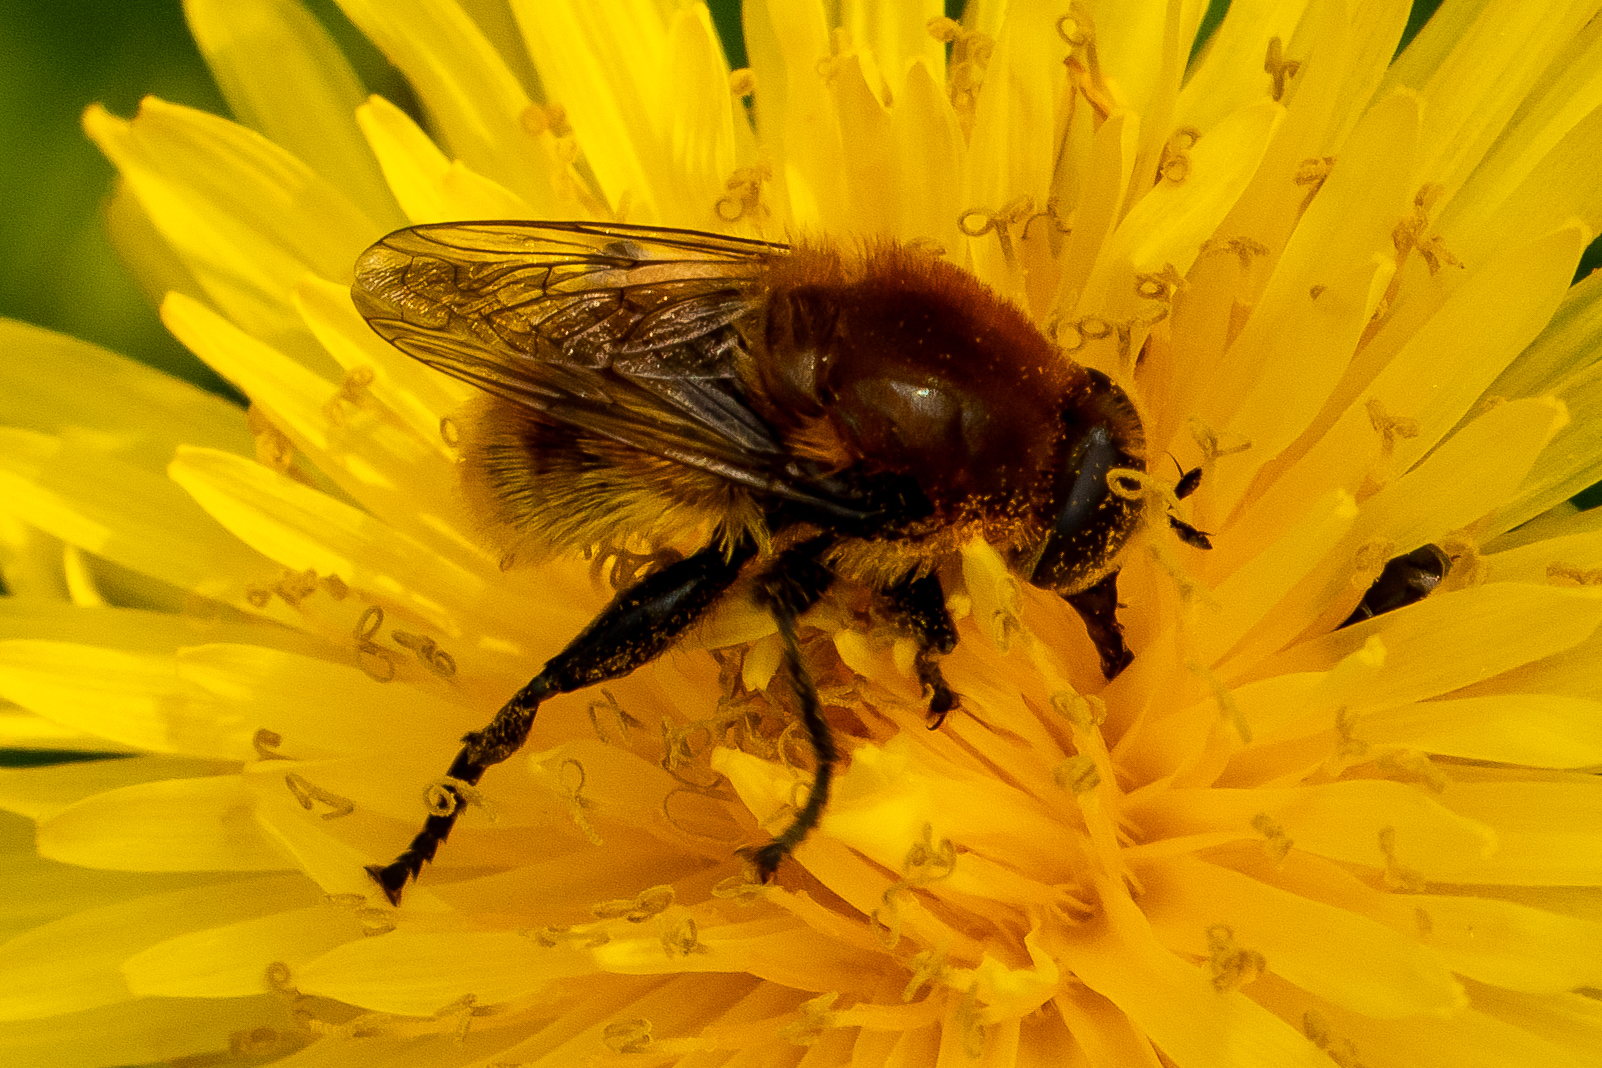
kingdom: Animalia
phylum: Arthropoda
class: Insecta
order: Diptera
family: Syrphidae
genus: Merodon
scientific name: Merodon equestris
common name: Greater bulb-fly
